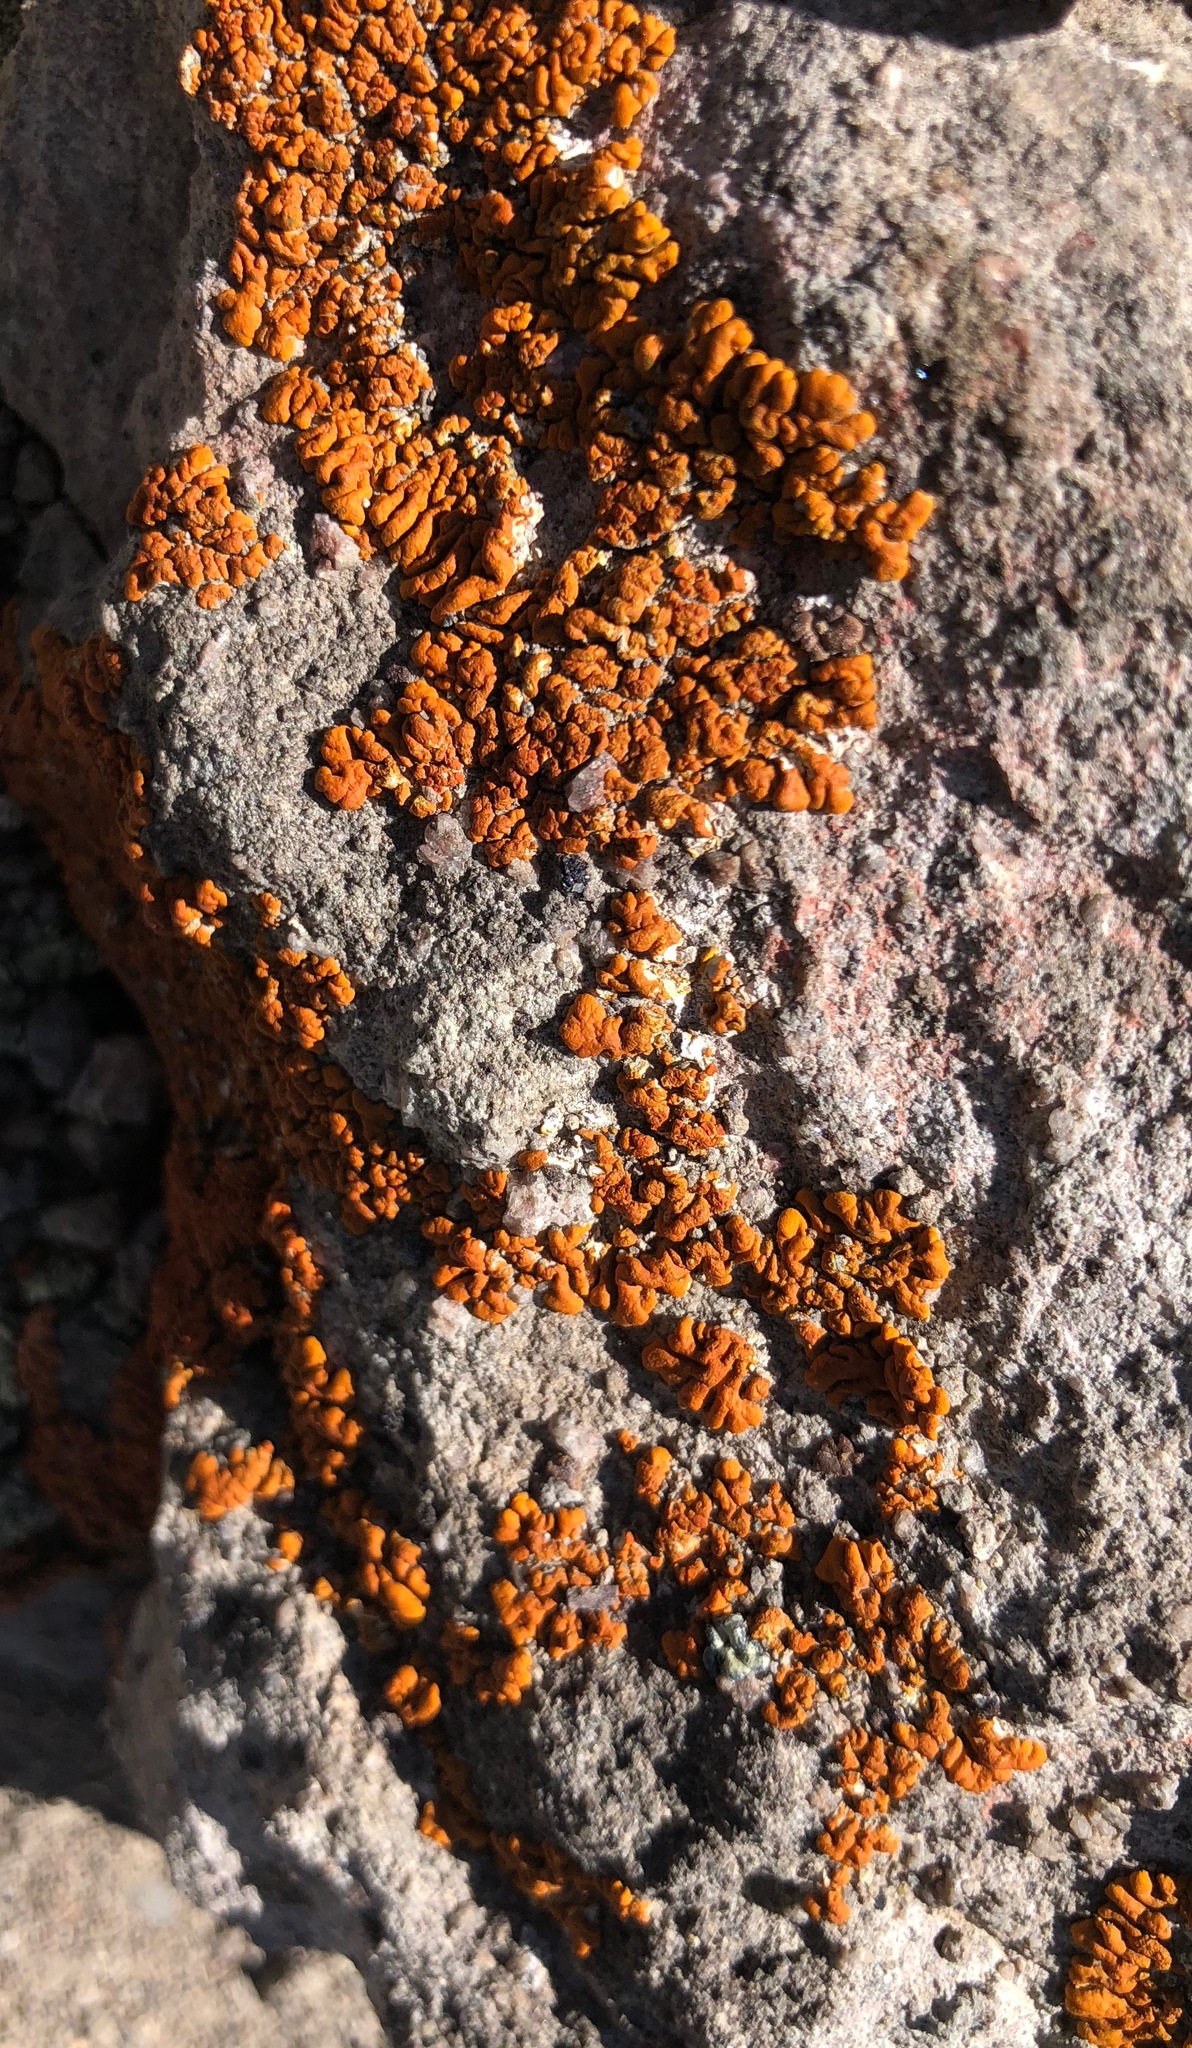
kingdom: Fungi
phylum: Ascomycota
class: Lecanoromycetes
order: Teloschistales
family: Teloschistaceae
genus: Xanthoria
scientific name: Xanthoria elegans
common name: Elegant sunburst lichen
